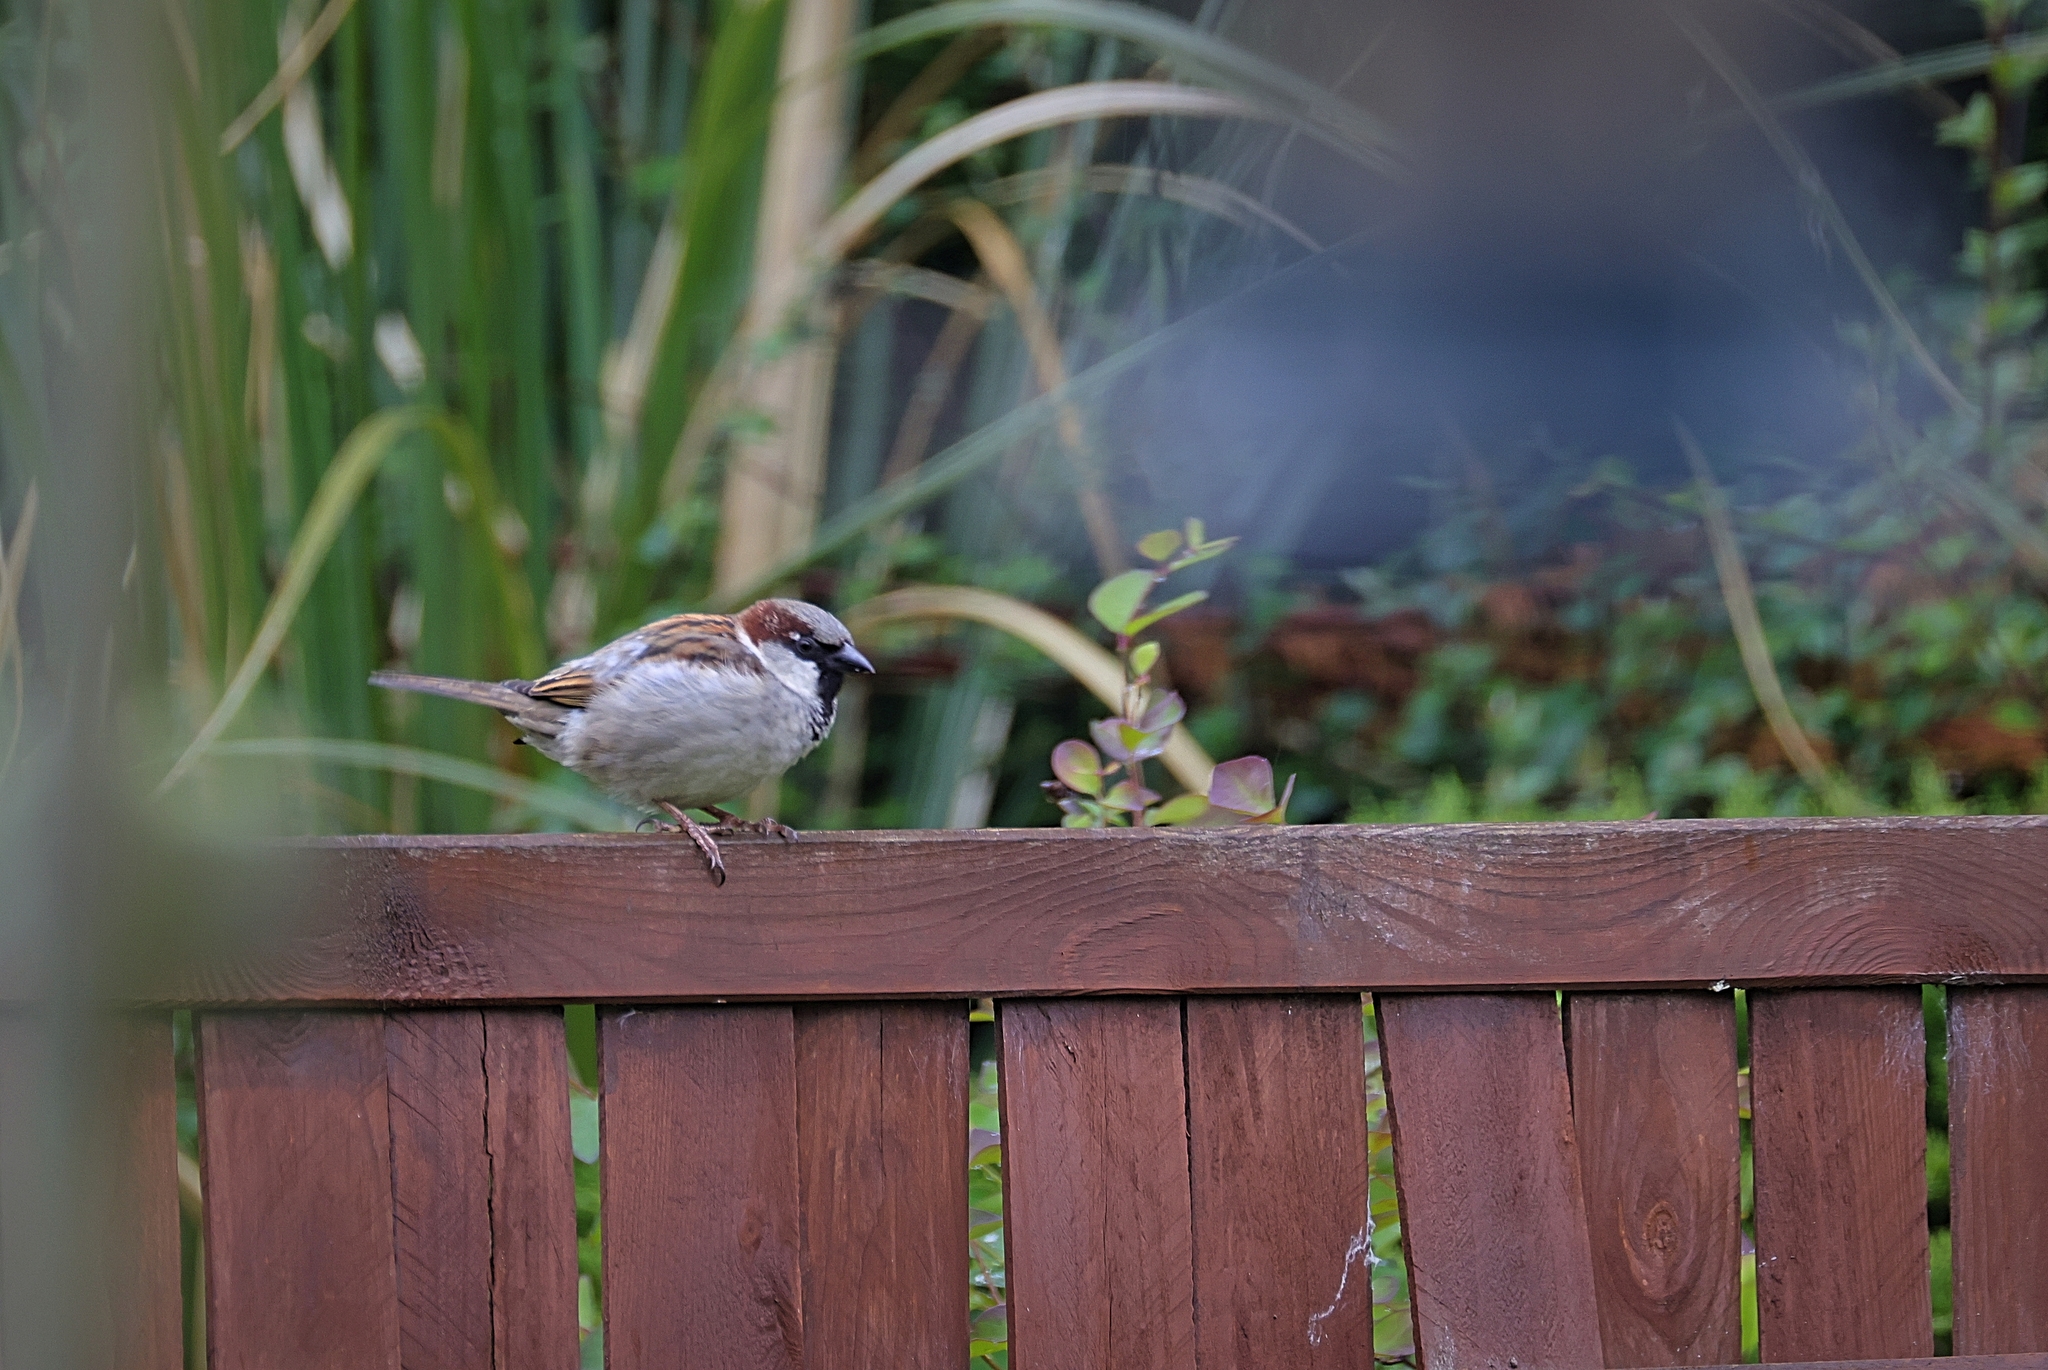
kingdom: Animalia
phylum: Chordata
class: Aves
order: Passeriformes
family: Passeridae
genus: Passer
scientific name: Passer domesticus
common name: House sparrow
